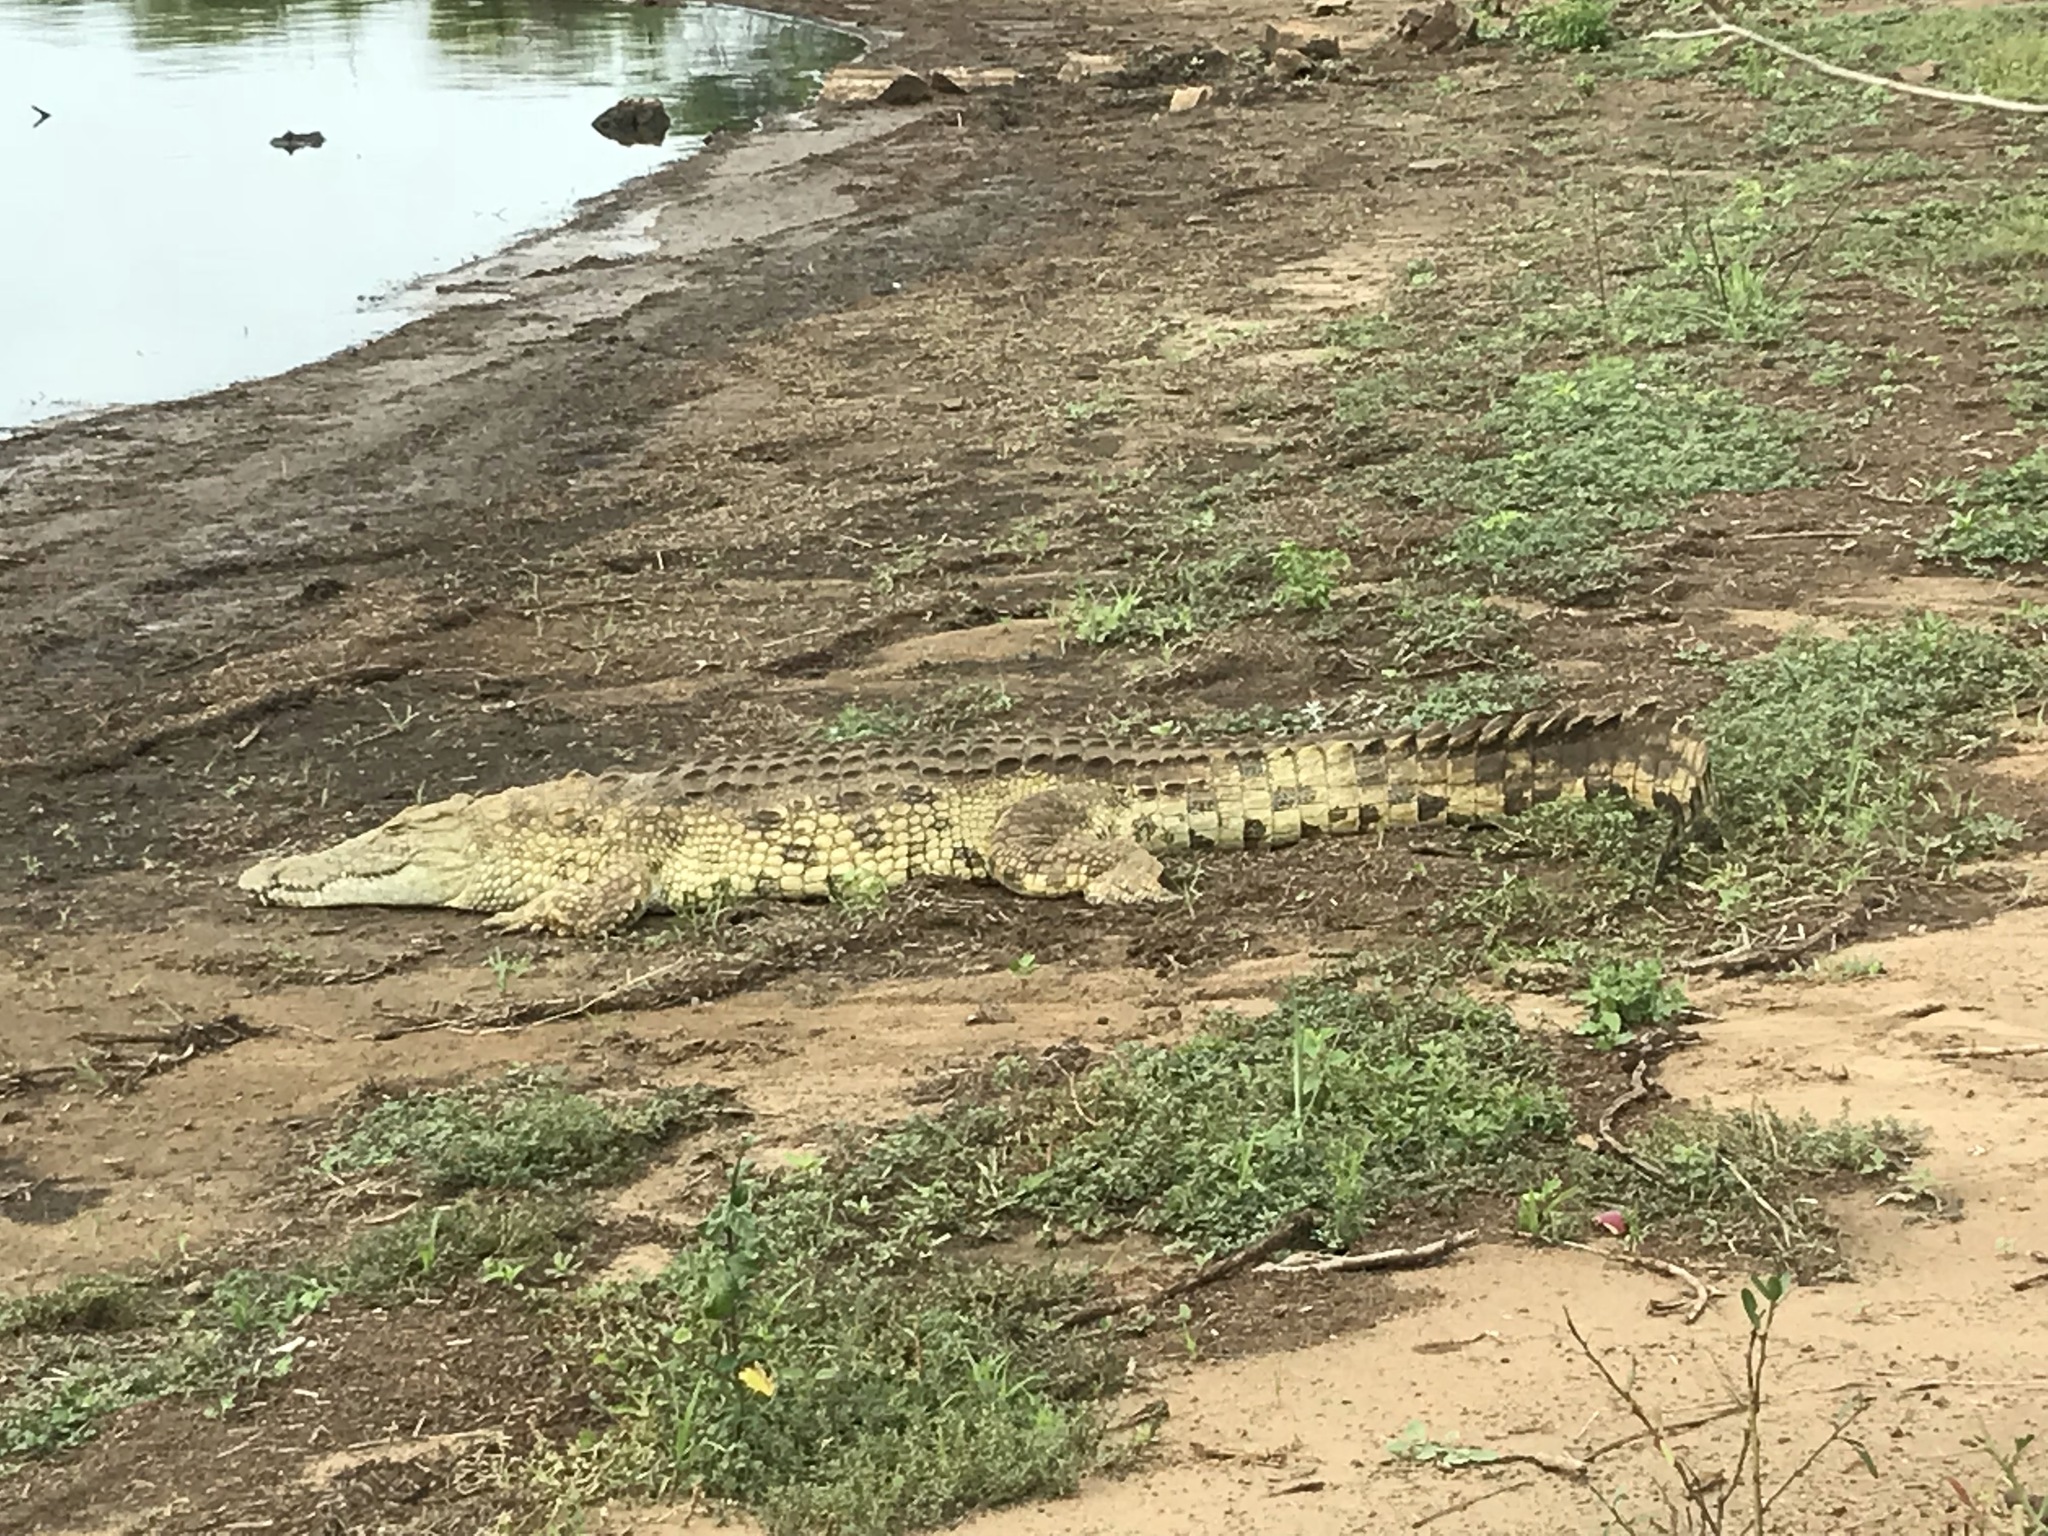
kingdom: Animalia
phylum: Chordata
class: Crocodylia
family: Crocodylidae
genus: Crocodylus
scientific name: Crocodylus niloticus
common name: Nile crocodile
